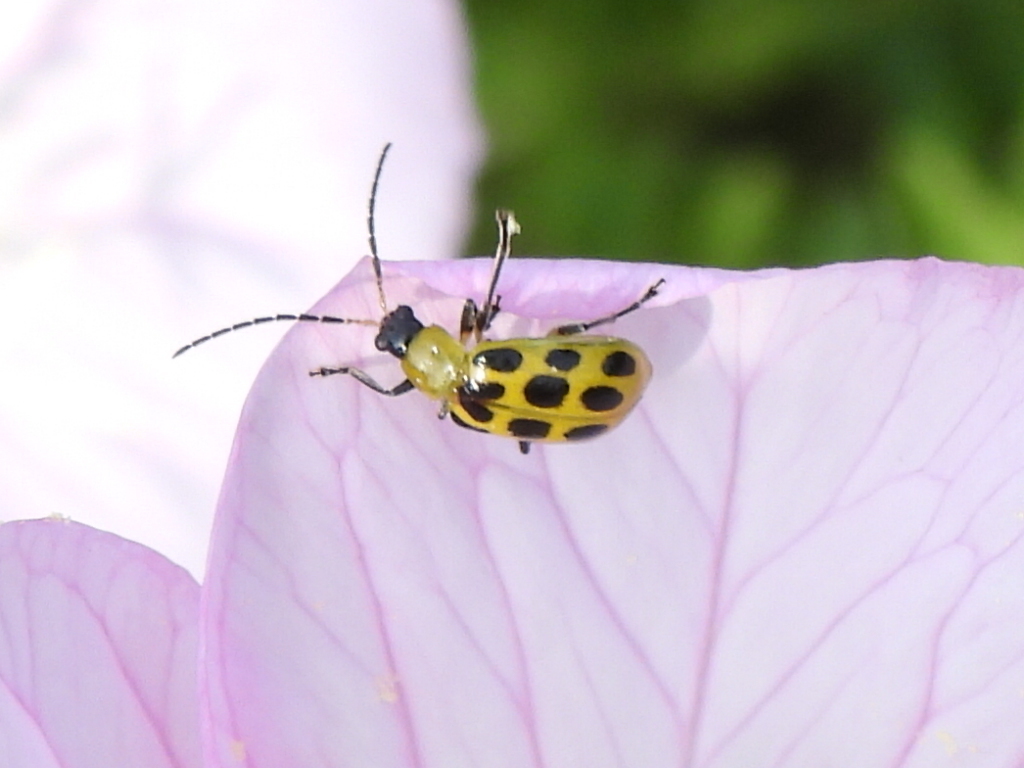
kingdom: Animalia
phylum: Arthropoda
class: Insecta
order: Coleoptera
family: Chrysomelidae
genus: Diabrotica
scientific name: Diabrotica undecimpunctata
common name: Spotted cucumber beetle
